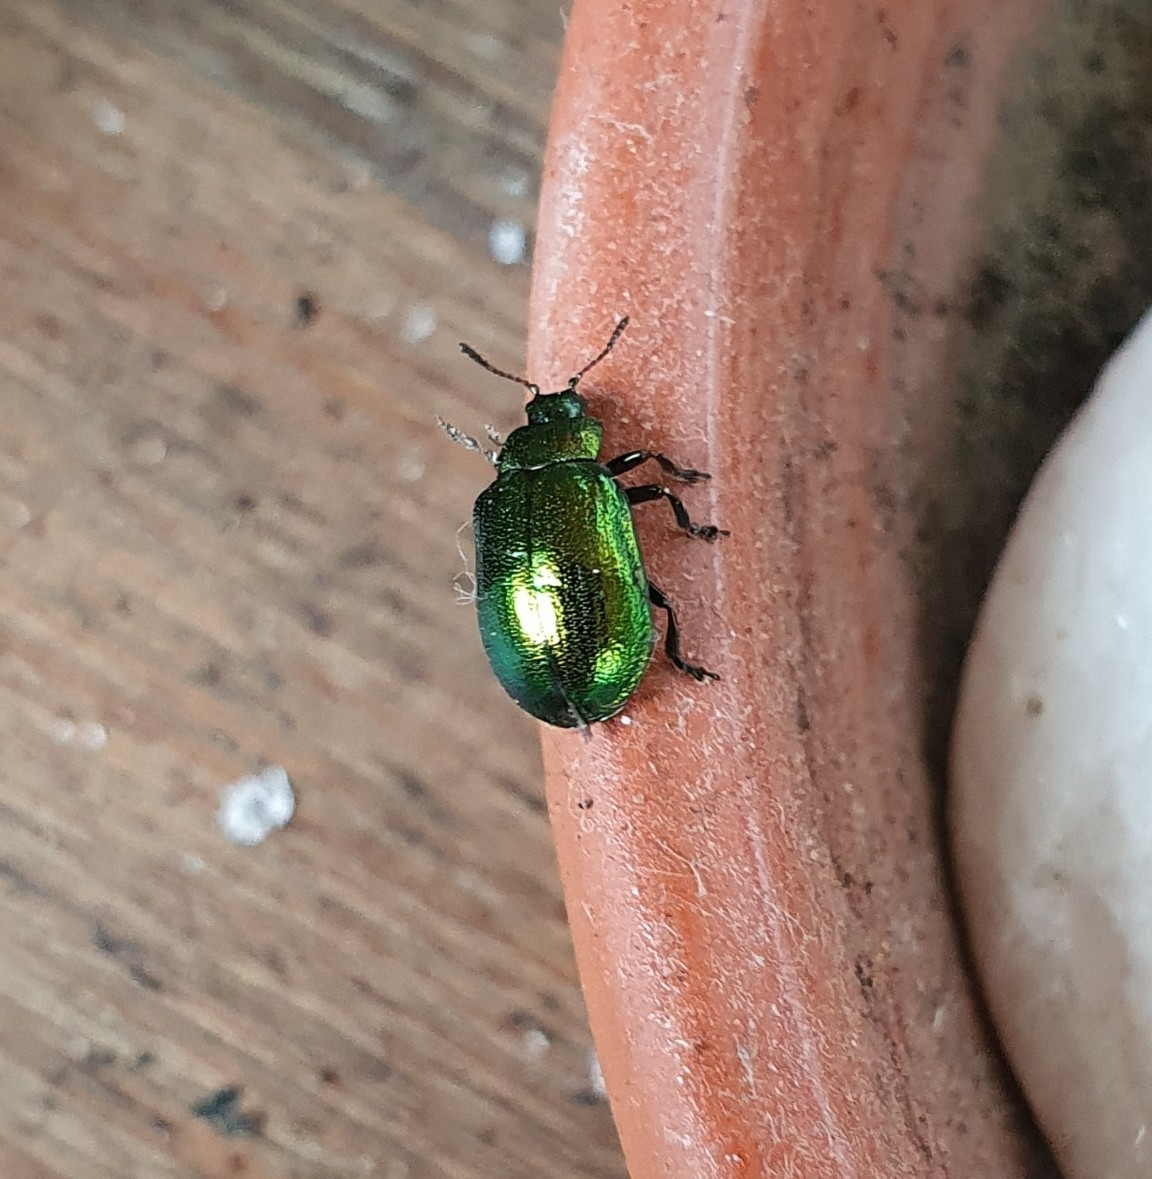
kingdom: Animalia
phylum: Arthropoda
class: Insecta
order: Coleoptera
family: Chrysomelidae
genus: Plagiosterna
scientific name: Plagiosterna aenea
